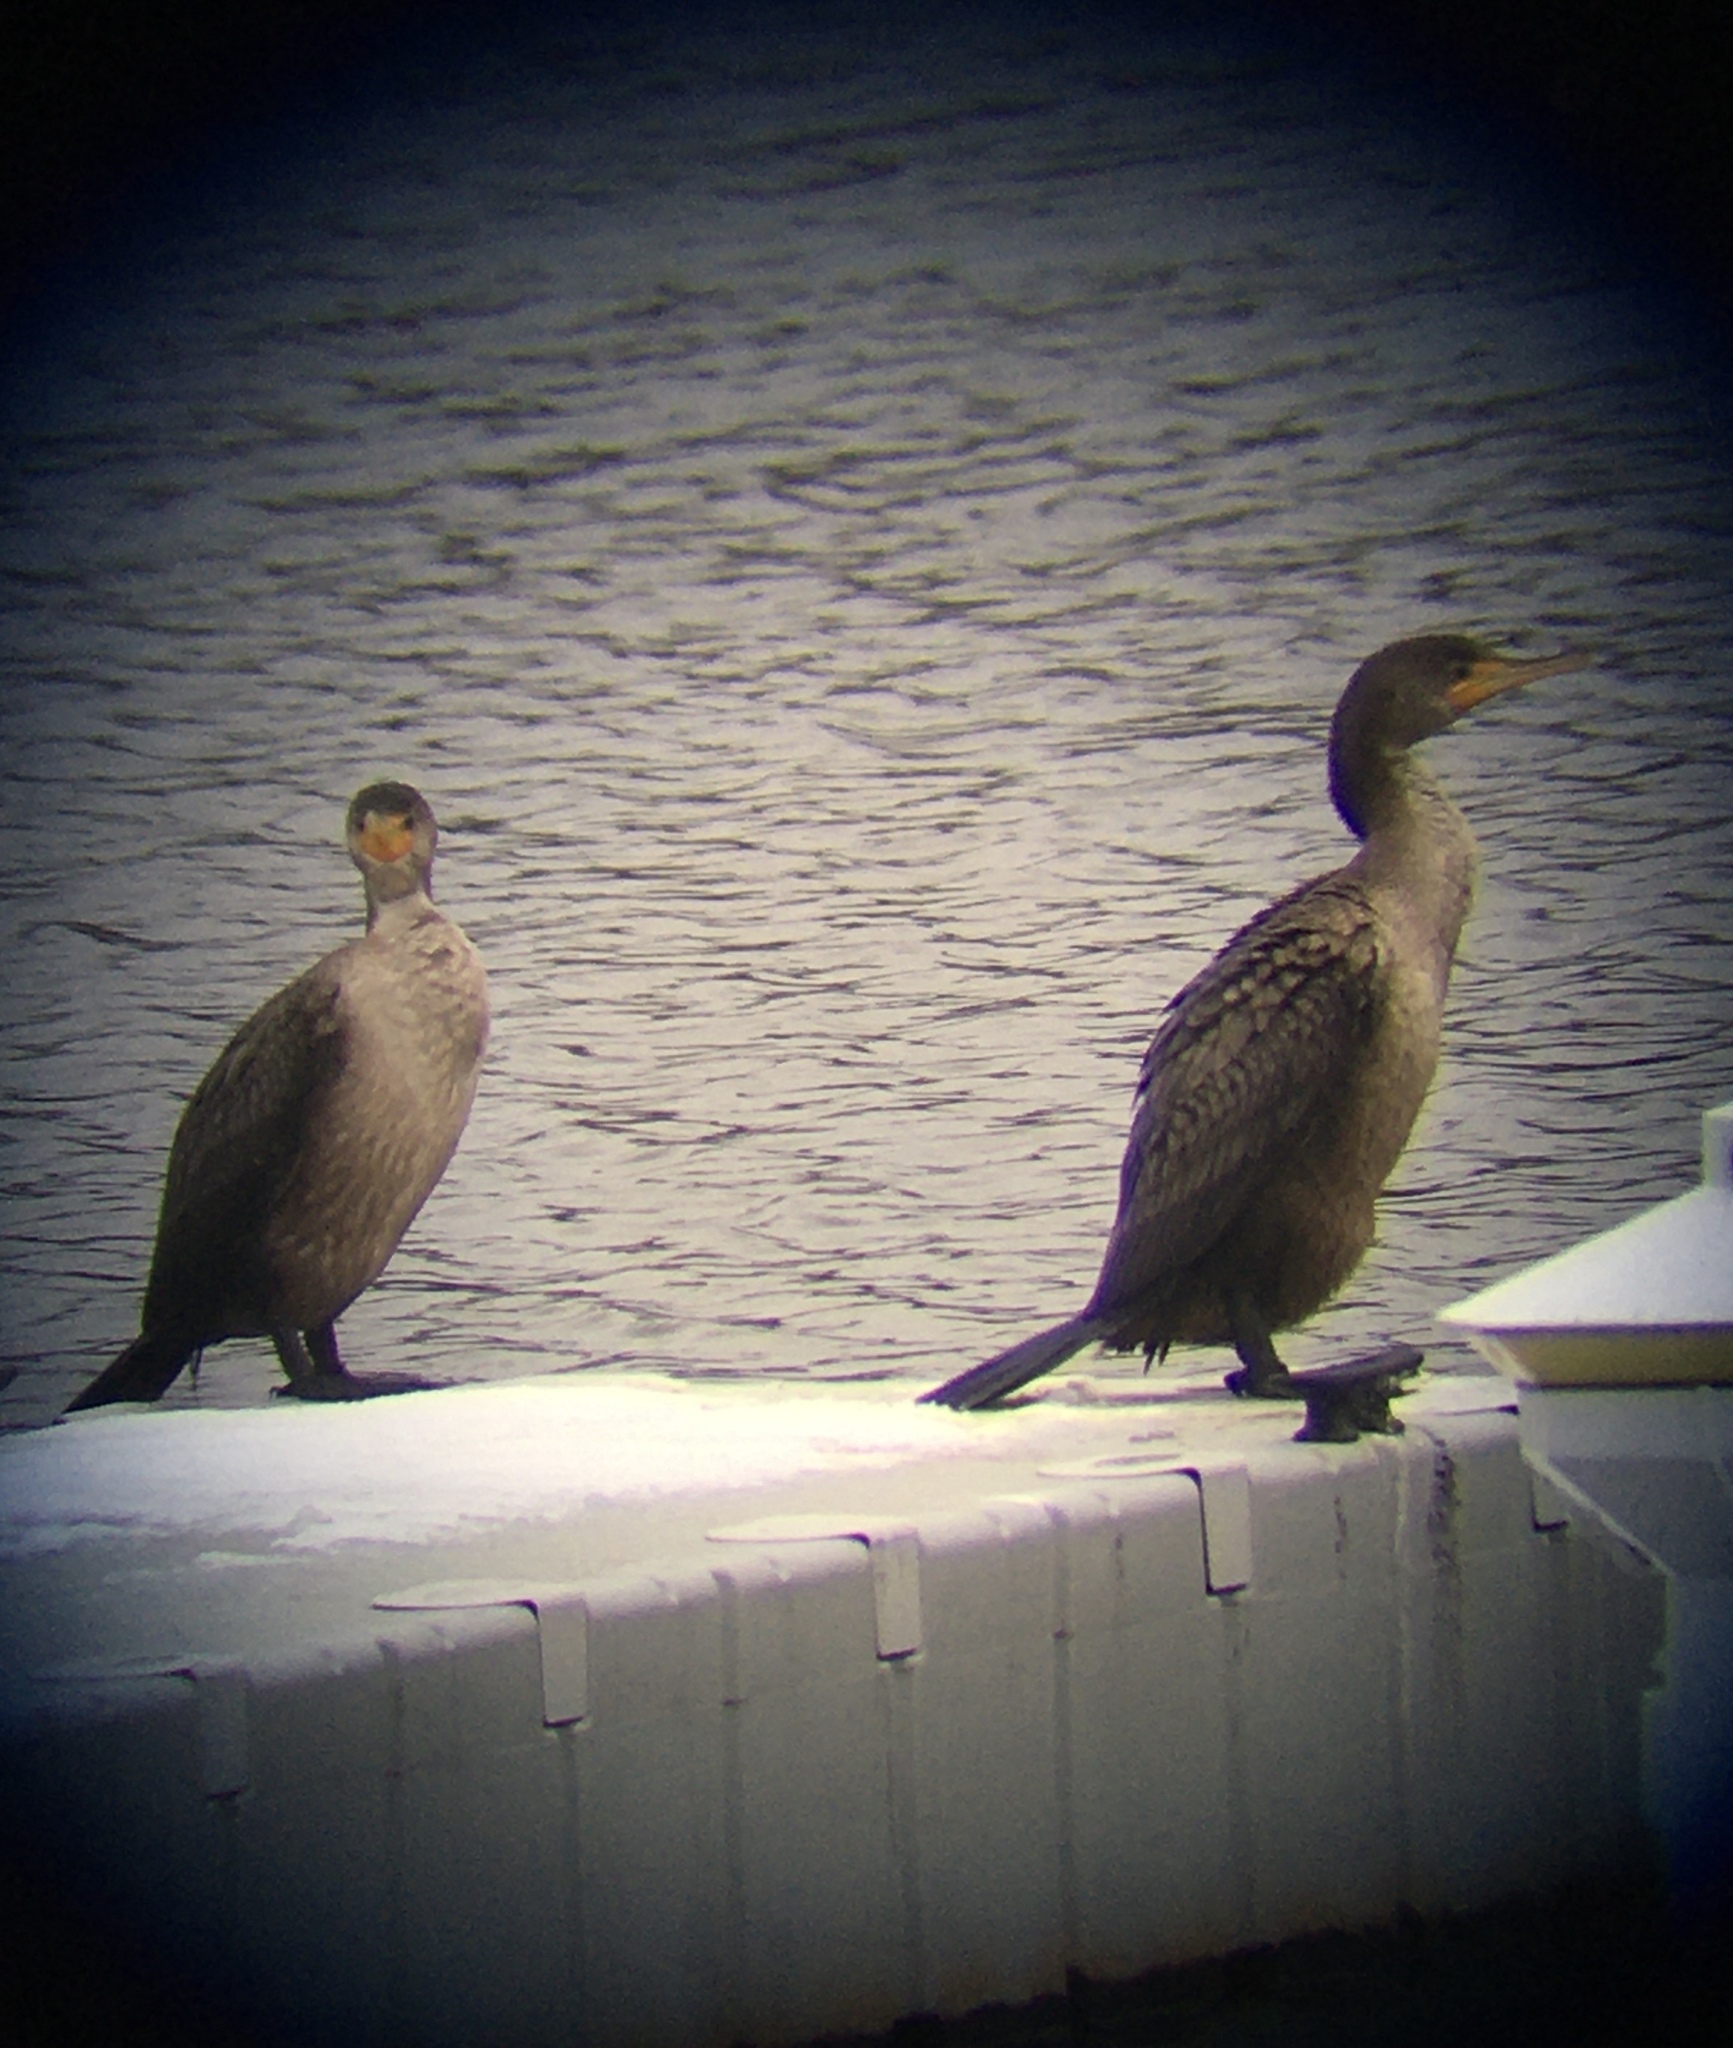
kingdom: Animalia
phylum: Chordata
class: Aves
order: Suliformes
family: Phalacrocoracidae
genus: Phalacrocorax
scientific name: Phalacrocorax auritus
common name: Double-crested cormorant
